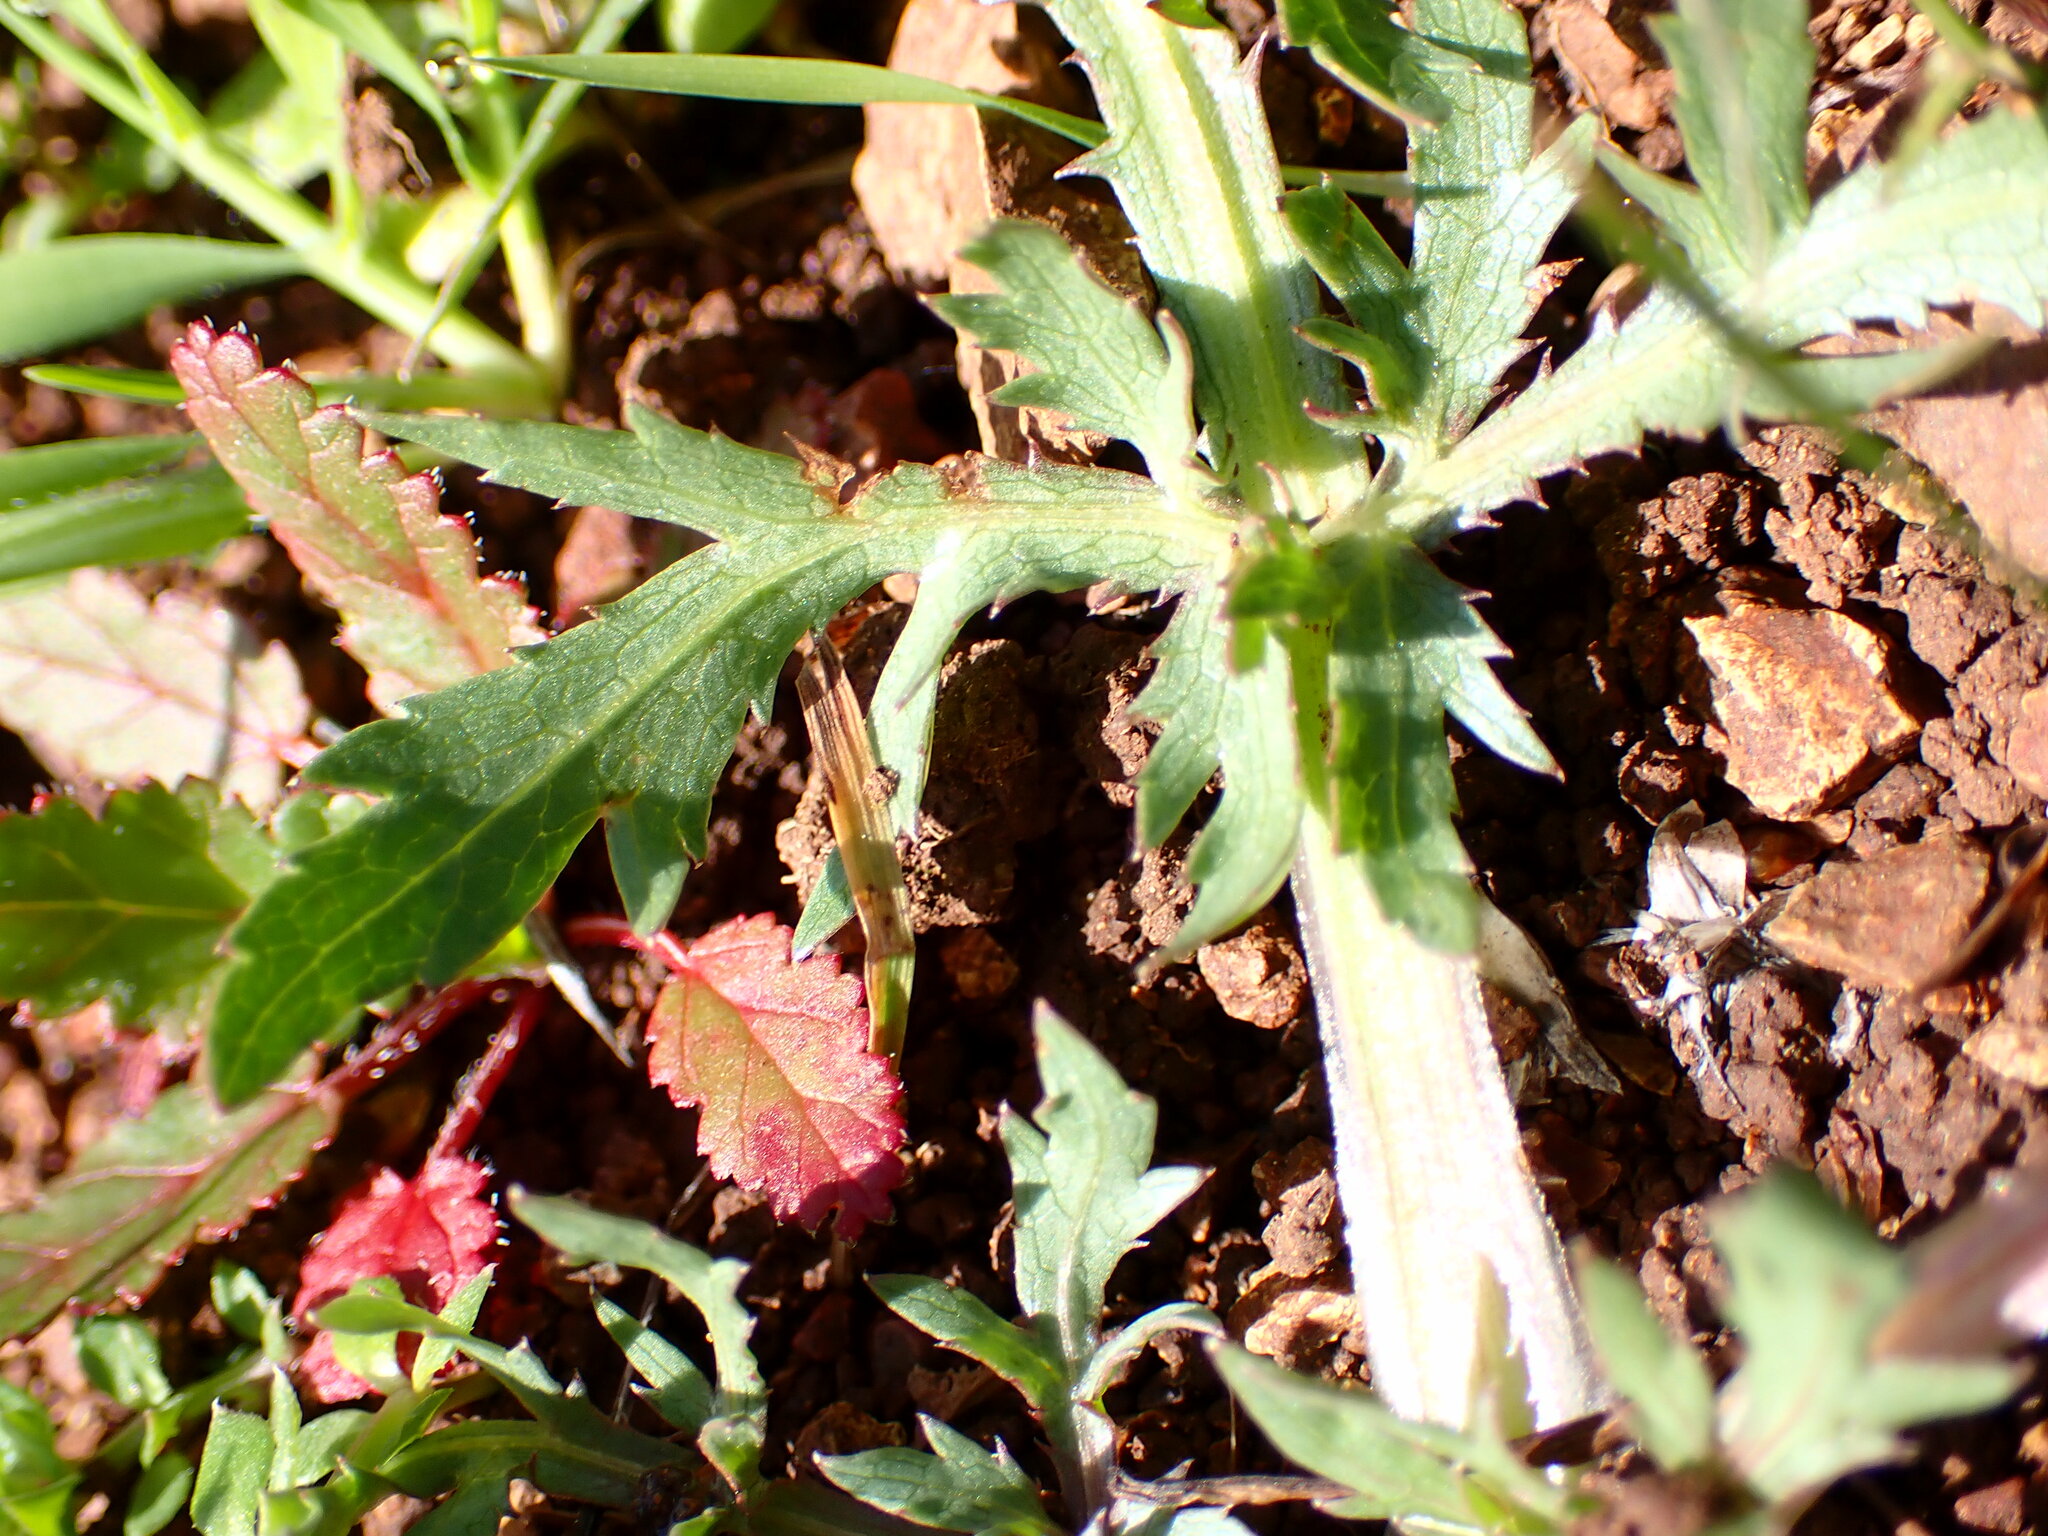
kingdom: Plantae
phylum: Tracheophyta
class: Magnoliopsida
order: Apiales
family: Apiaceae
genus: Sanicula
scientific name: Sanicula bipinnatifida
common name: Shoe-buttons
